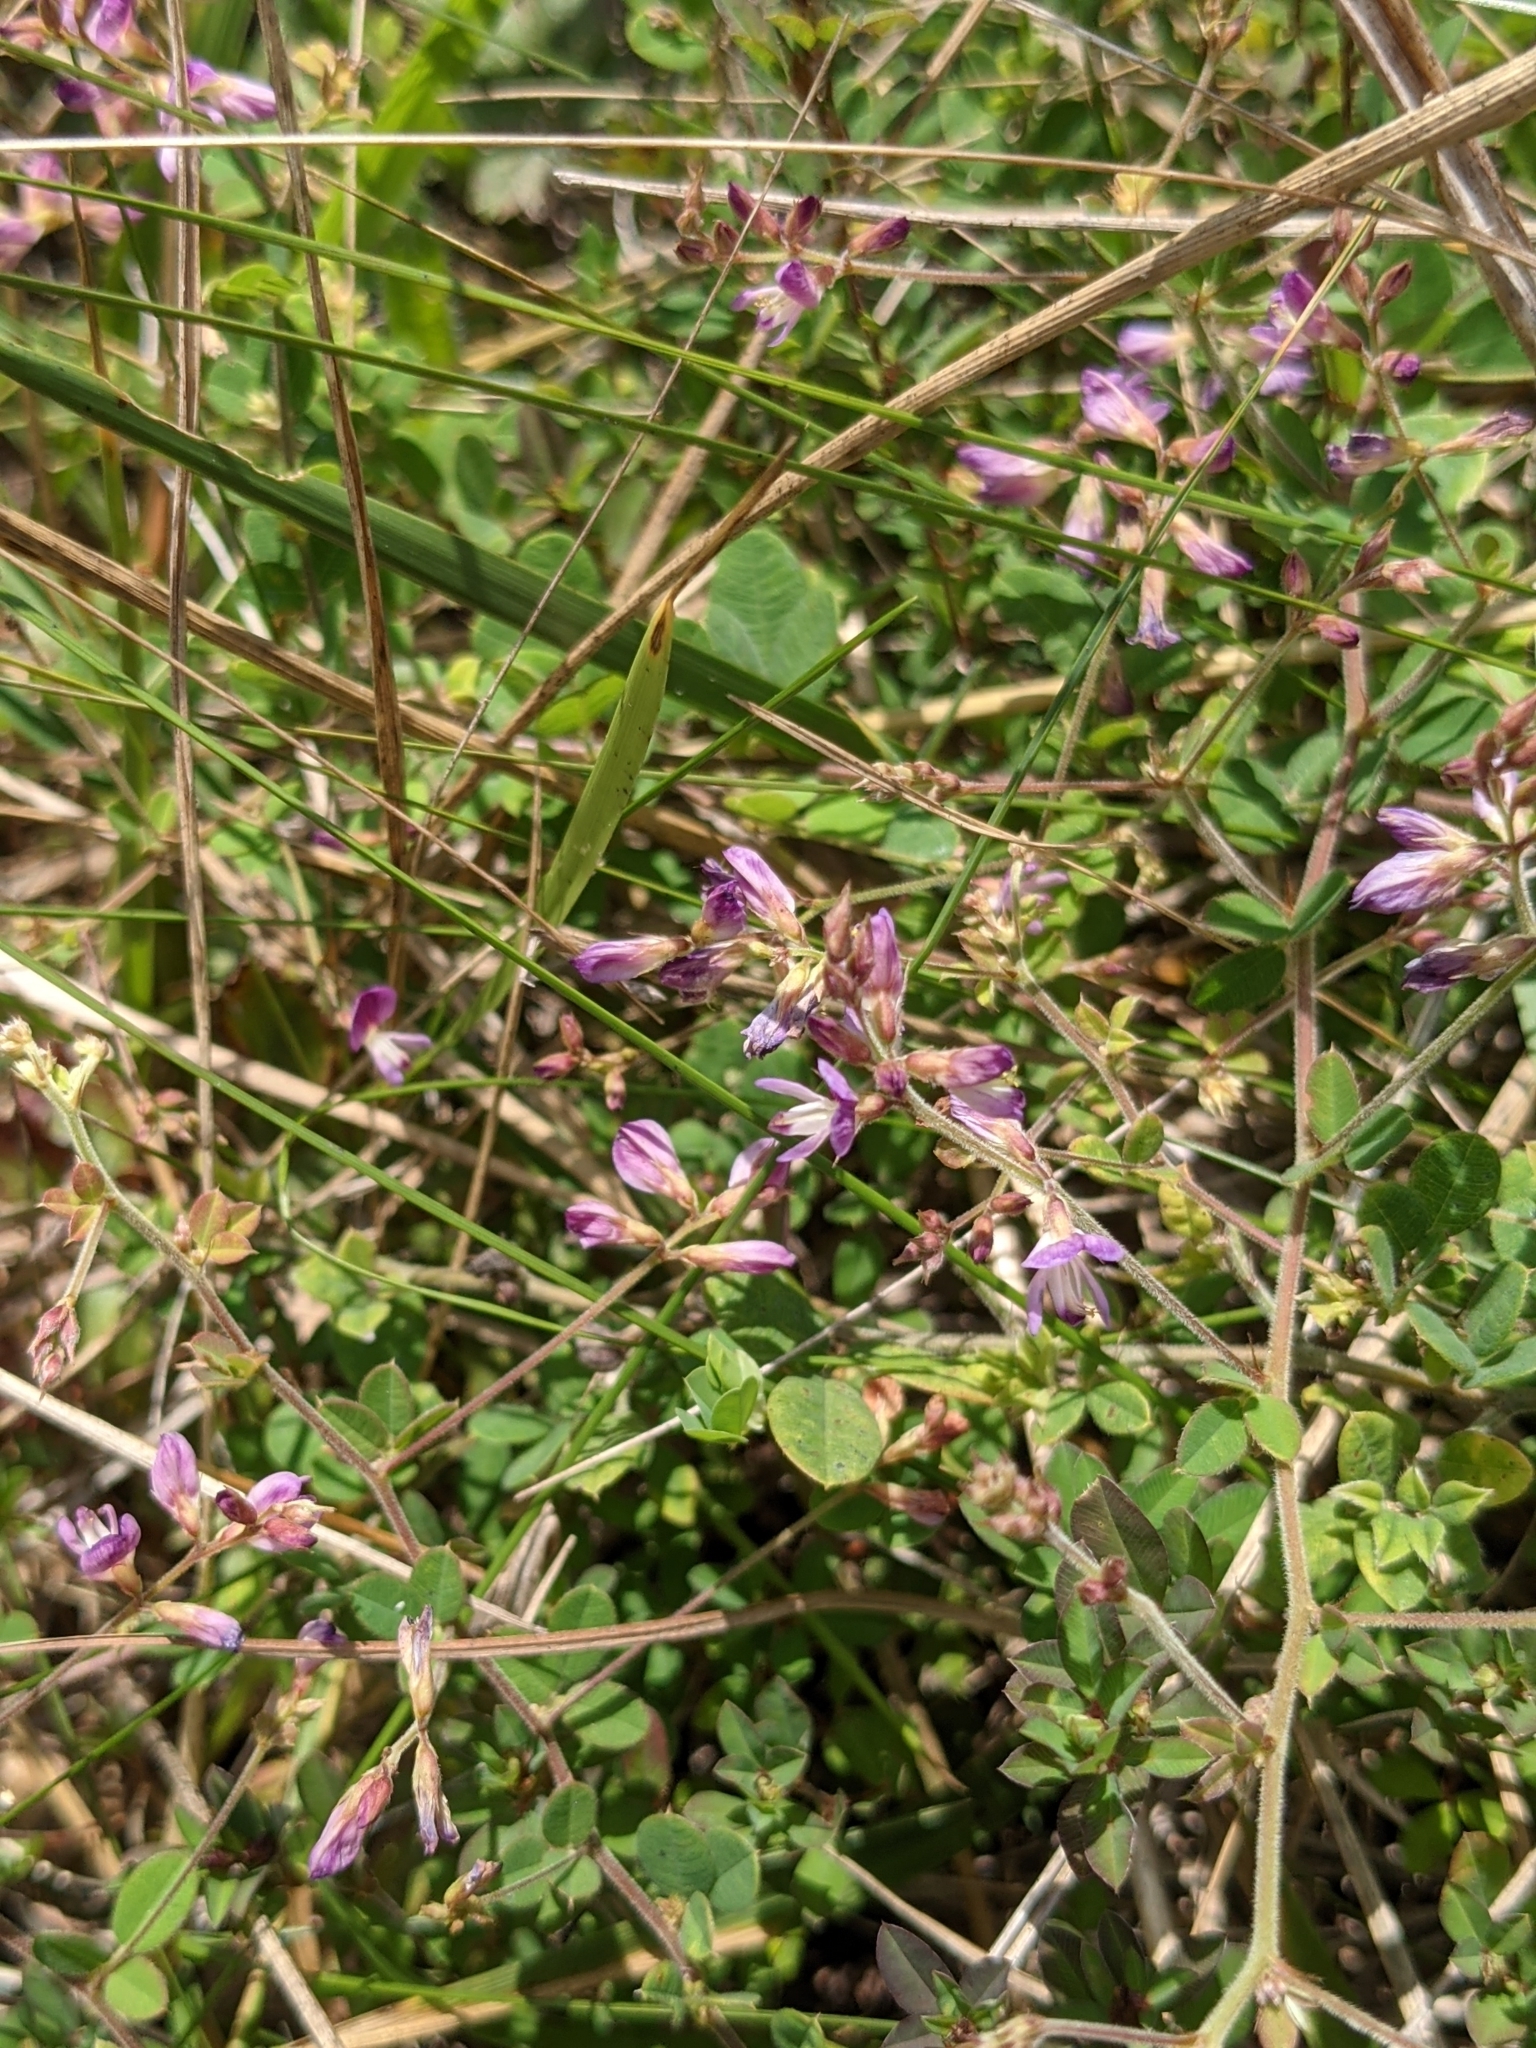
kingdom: Plantae
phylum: Tracheophyta
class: Magnoliopsida
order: Fabales
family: Fabaceae
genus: Lespedeza
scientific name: Lespedeza procumbens
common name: Downy trailing bush-clover
